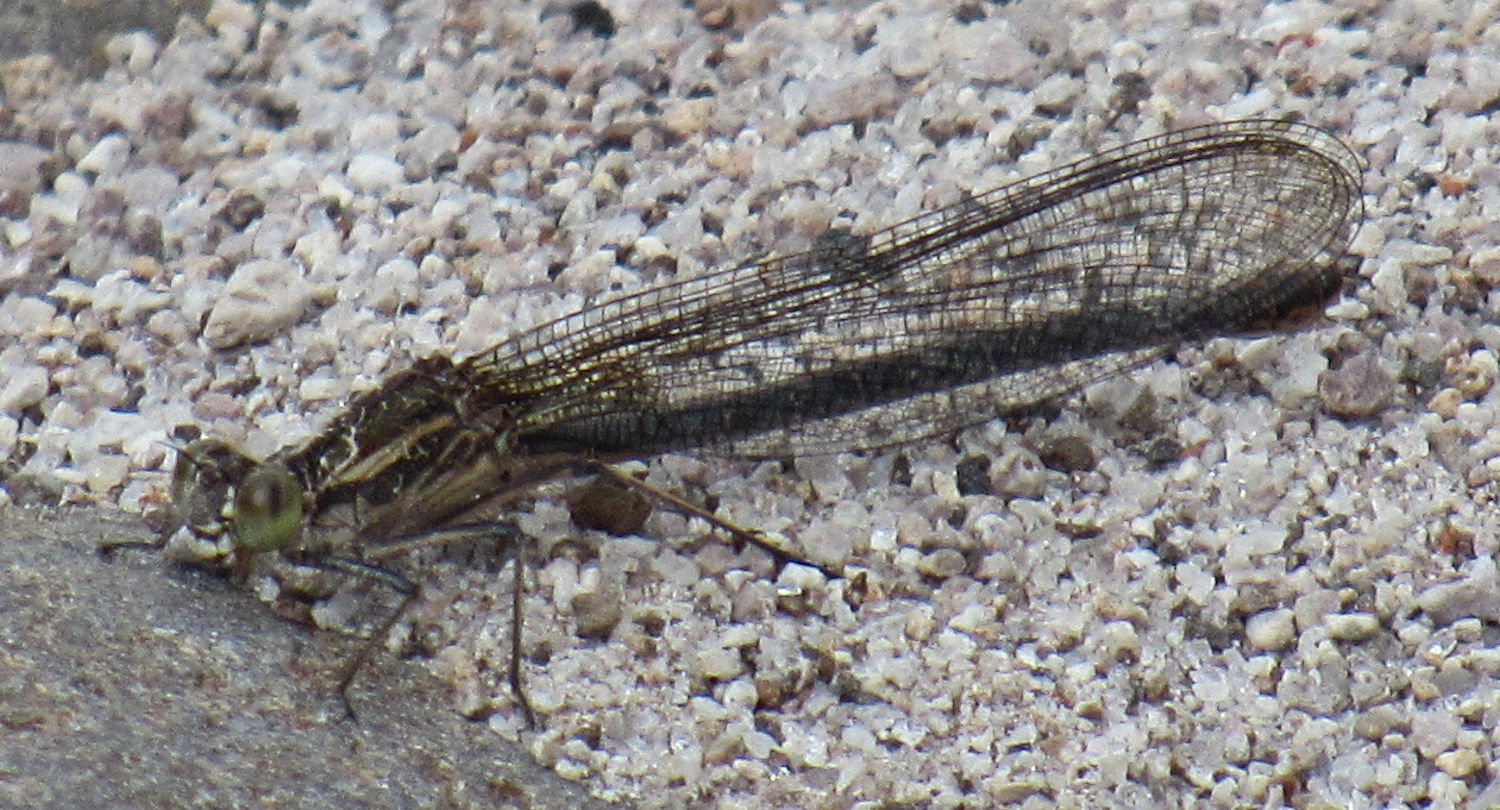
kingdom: Animalia
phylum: Arthropoda
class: Insecta
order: Odonata
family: Calopterygidae
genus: Hetaerina
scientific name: Hetaerina americana
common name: American rubyspot
